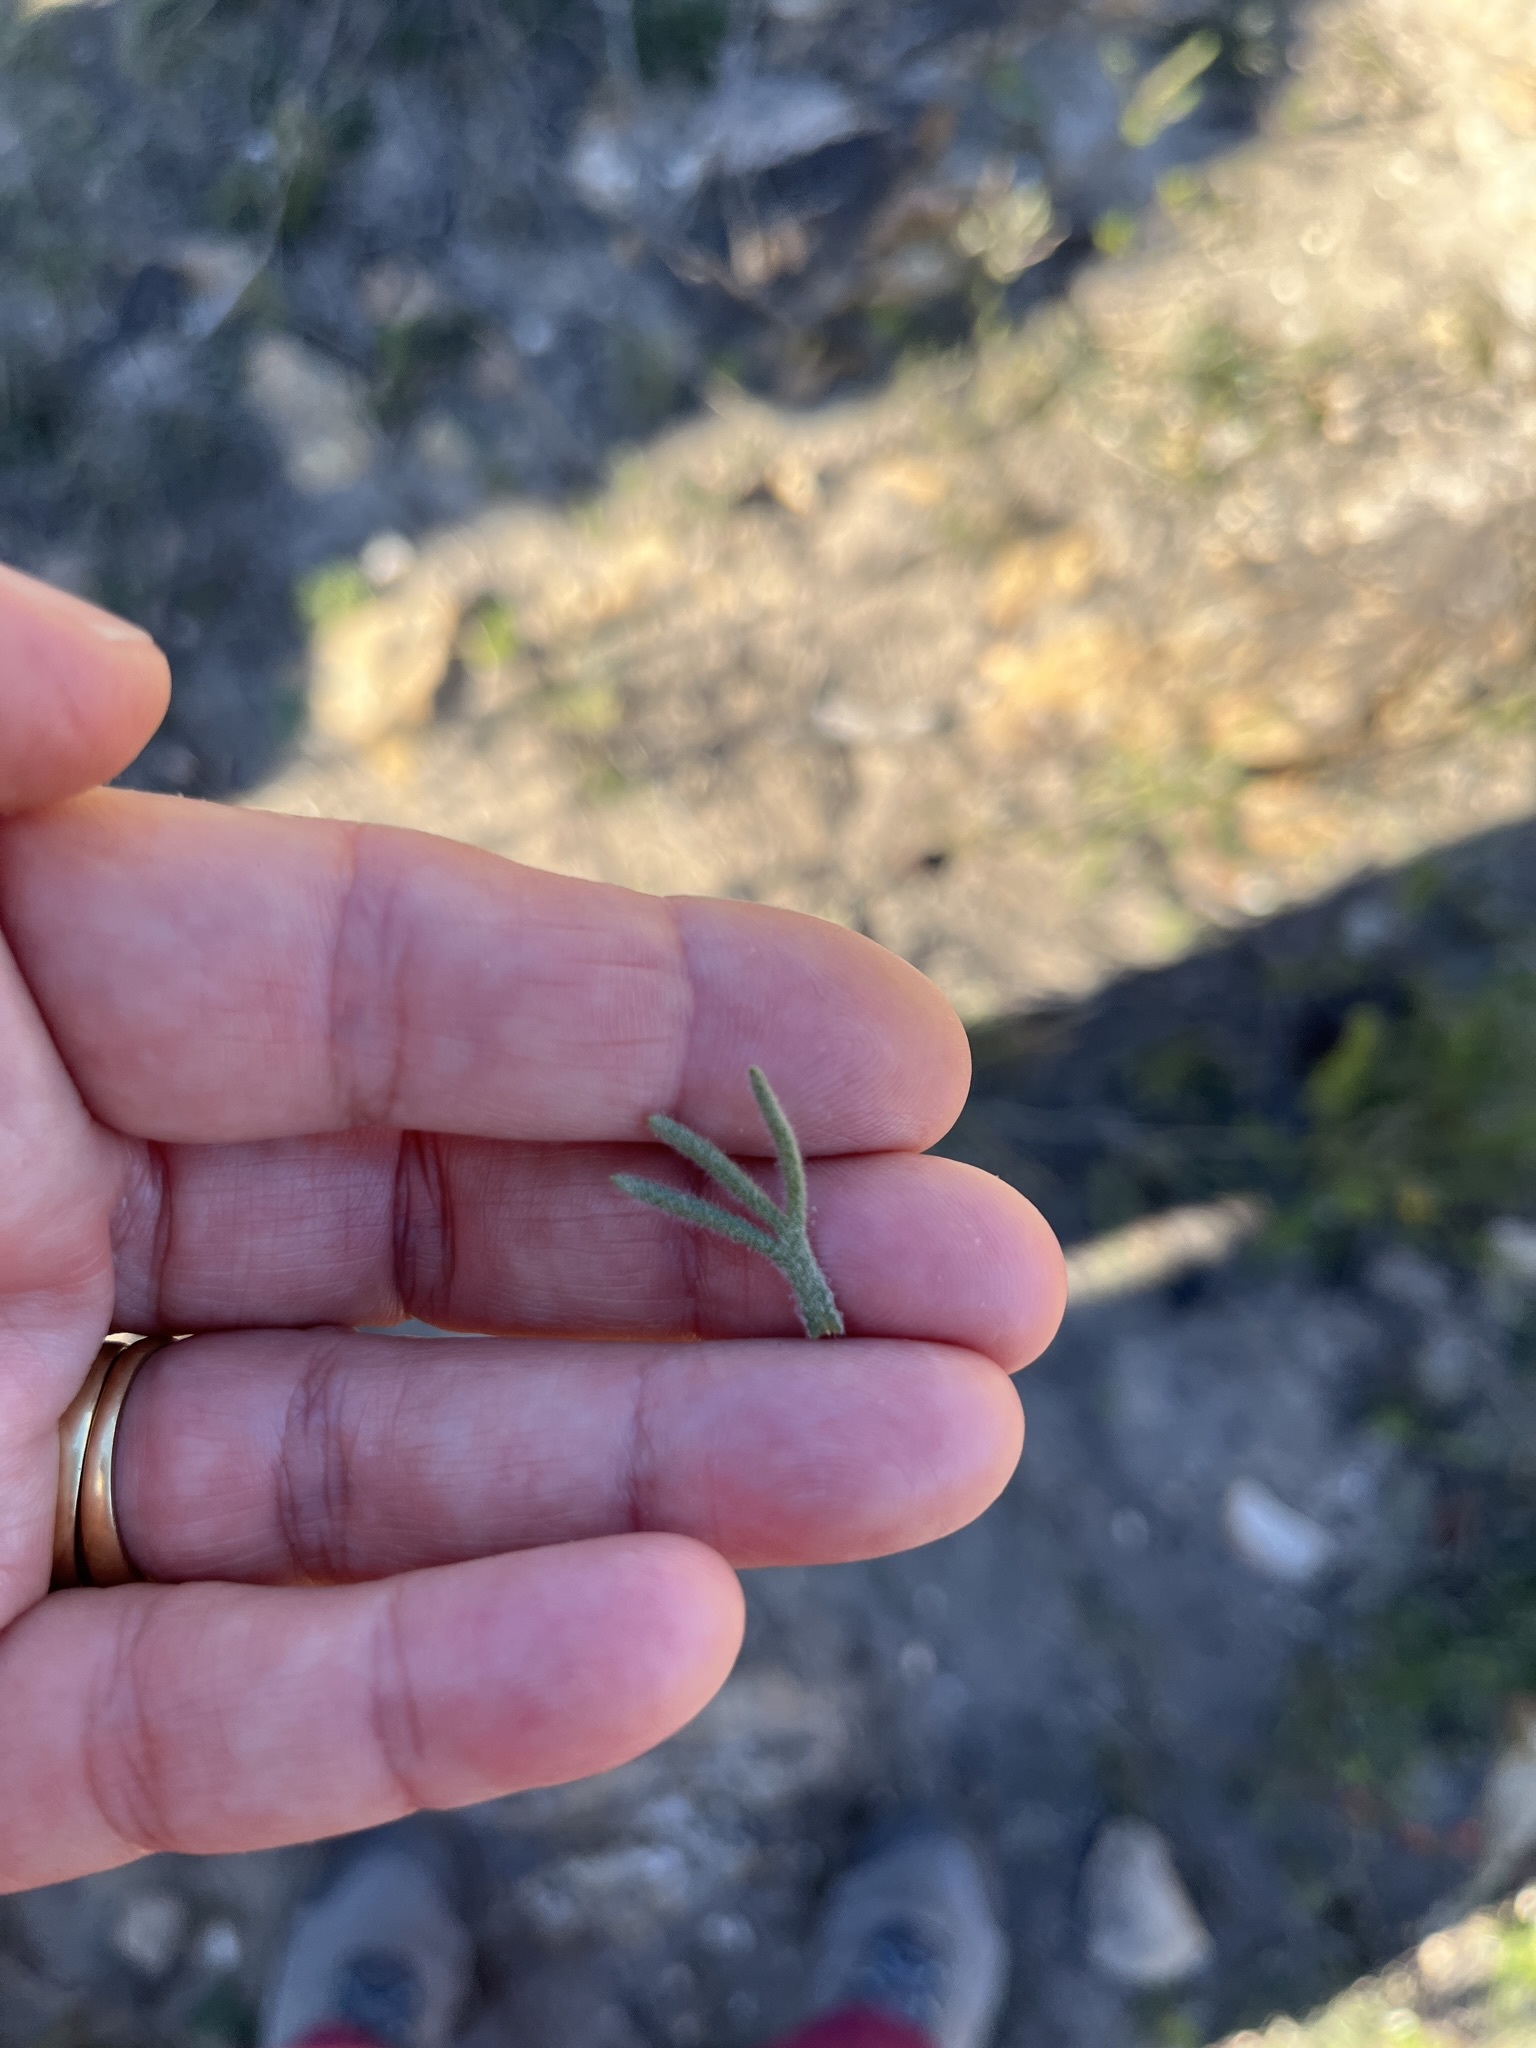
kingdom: Plantae
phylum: Tracheophyta
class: Magnoliopsida
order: Asterales
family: Asteraceae
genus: Athanasia
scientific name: Athanasia trifurcata
